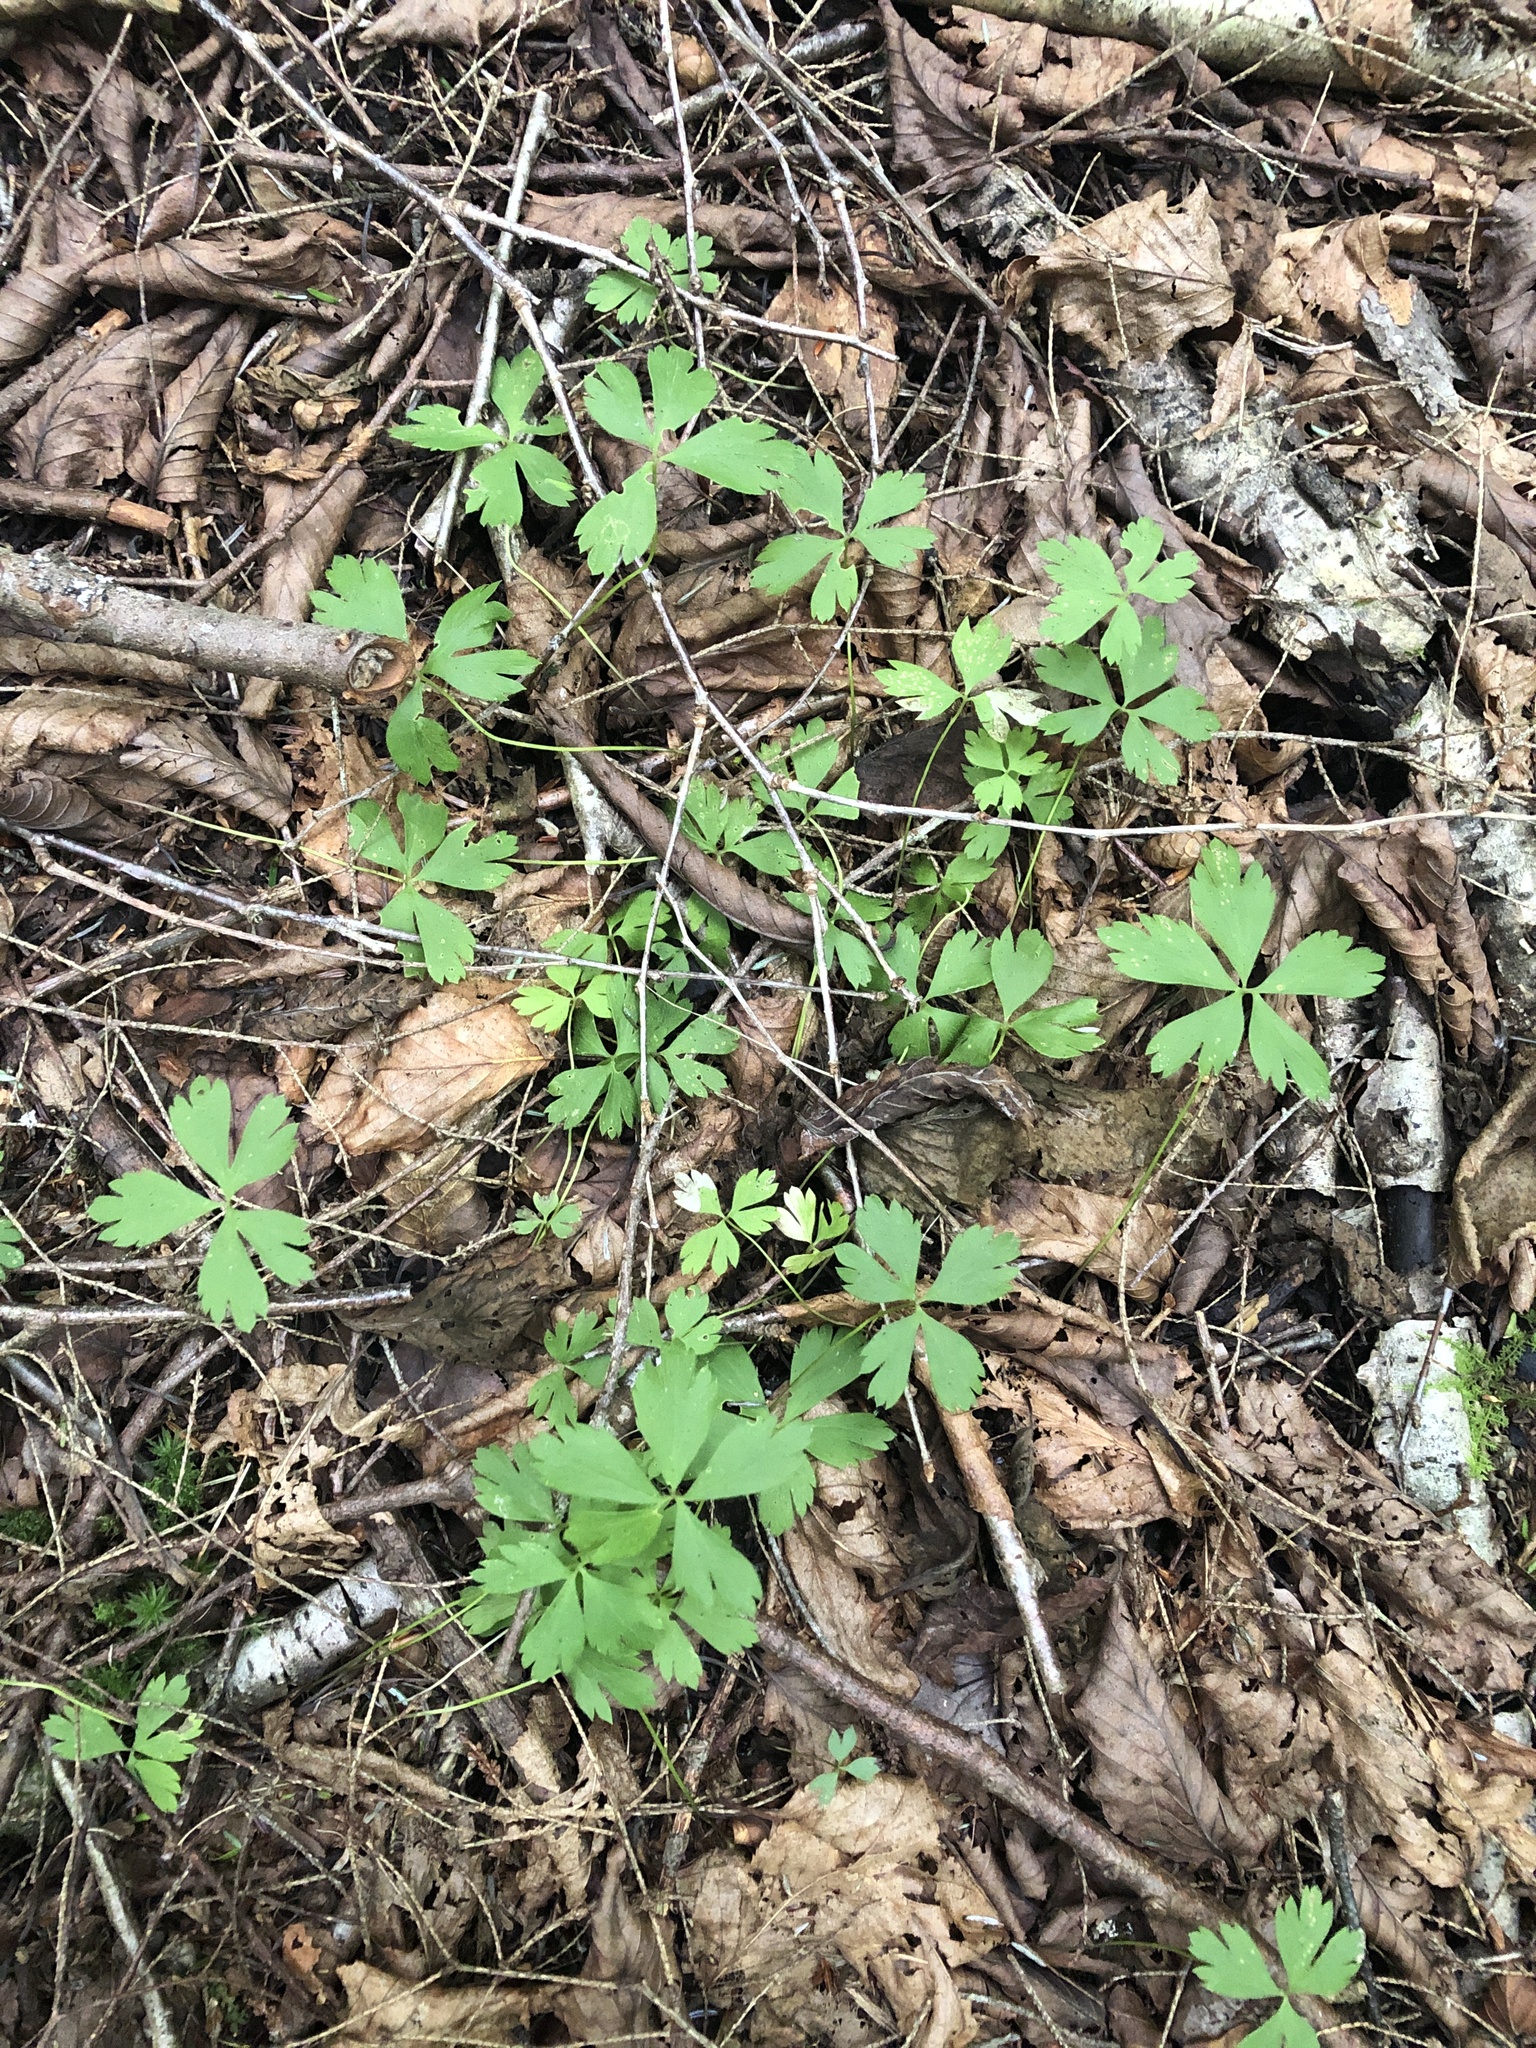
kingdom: Plantae
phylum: Tracheophyta
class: Magnoliopsida
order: Ranunculales
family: Ranunculaceae
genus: Anemone
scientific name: Anemone quinquefolia
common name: Wood anemone
